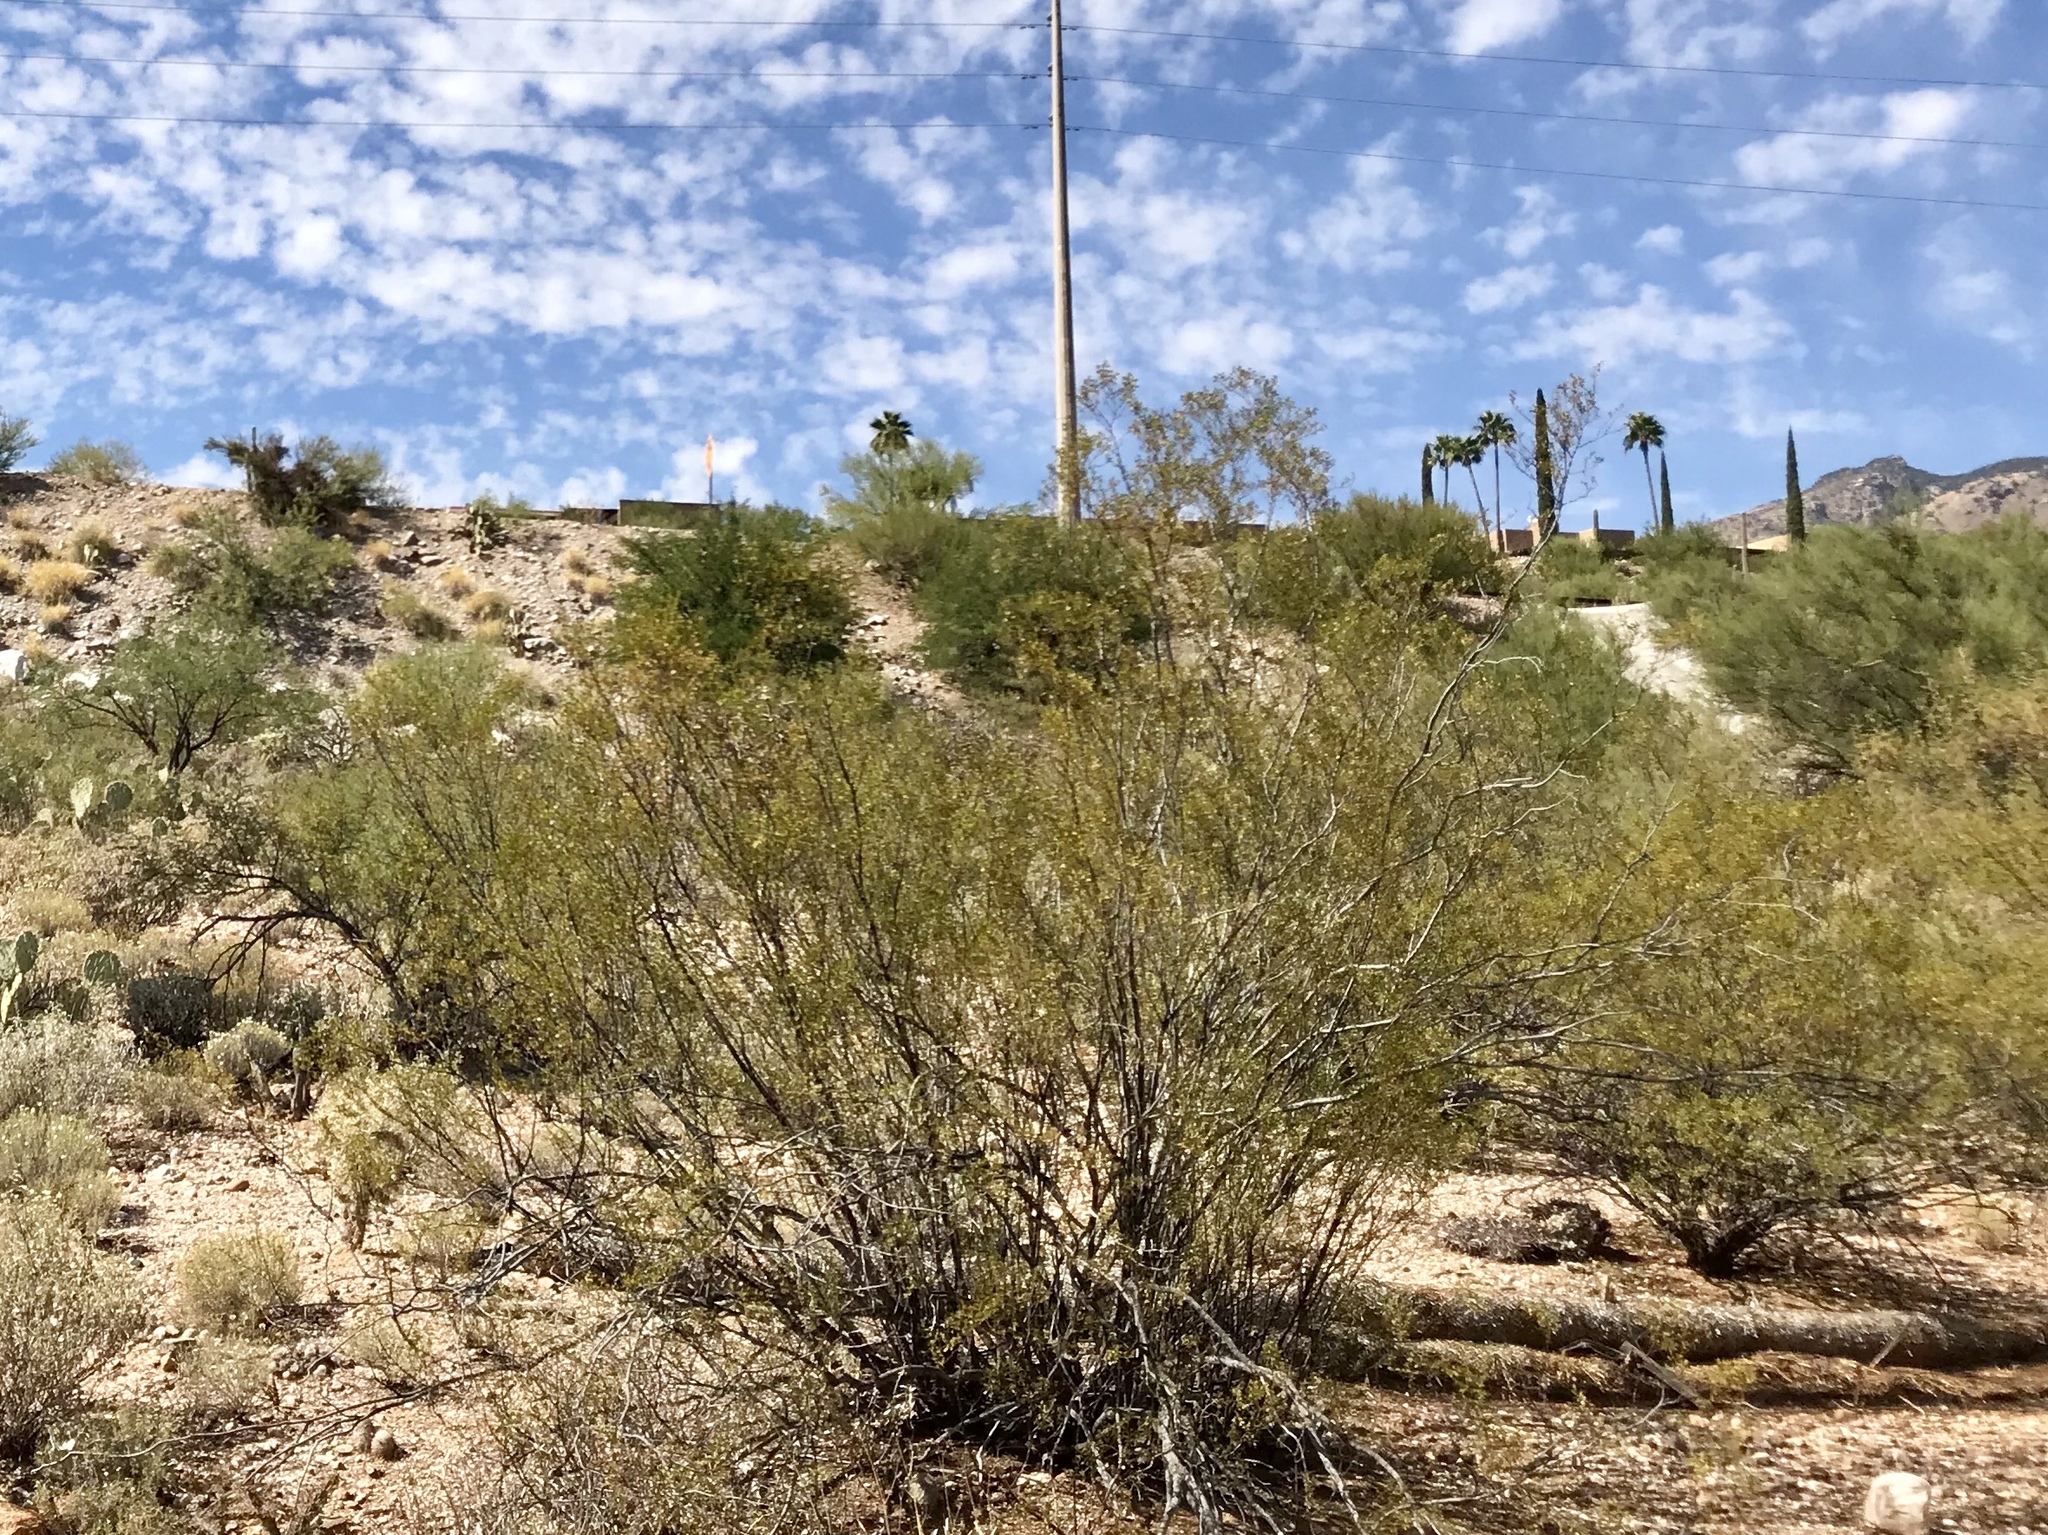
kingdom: Plantae
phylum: Tracheophyta
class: Magnoliopsida
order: Zygophyllales
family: Zygophyllaceae
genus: Larrea
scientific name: Larrea tridentata
